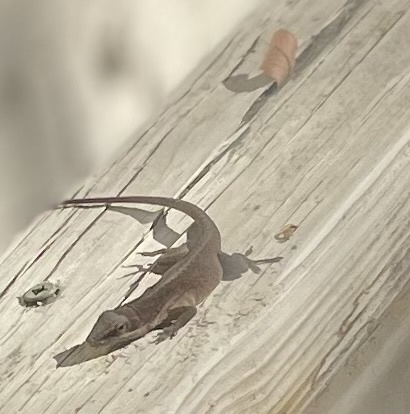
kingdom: Animalia
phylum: Chordata
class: Squamata
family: Dactyloidae
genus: Anolis
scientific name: Anolis carolinensis
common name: Green anole
